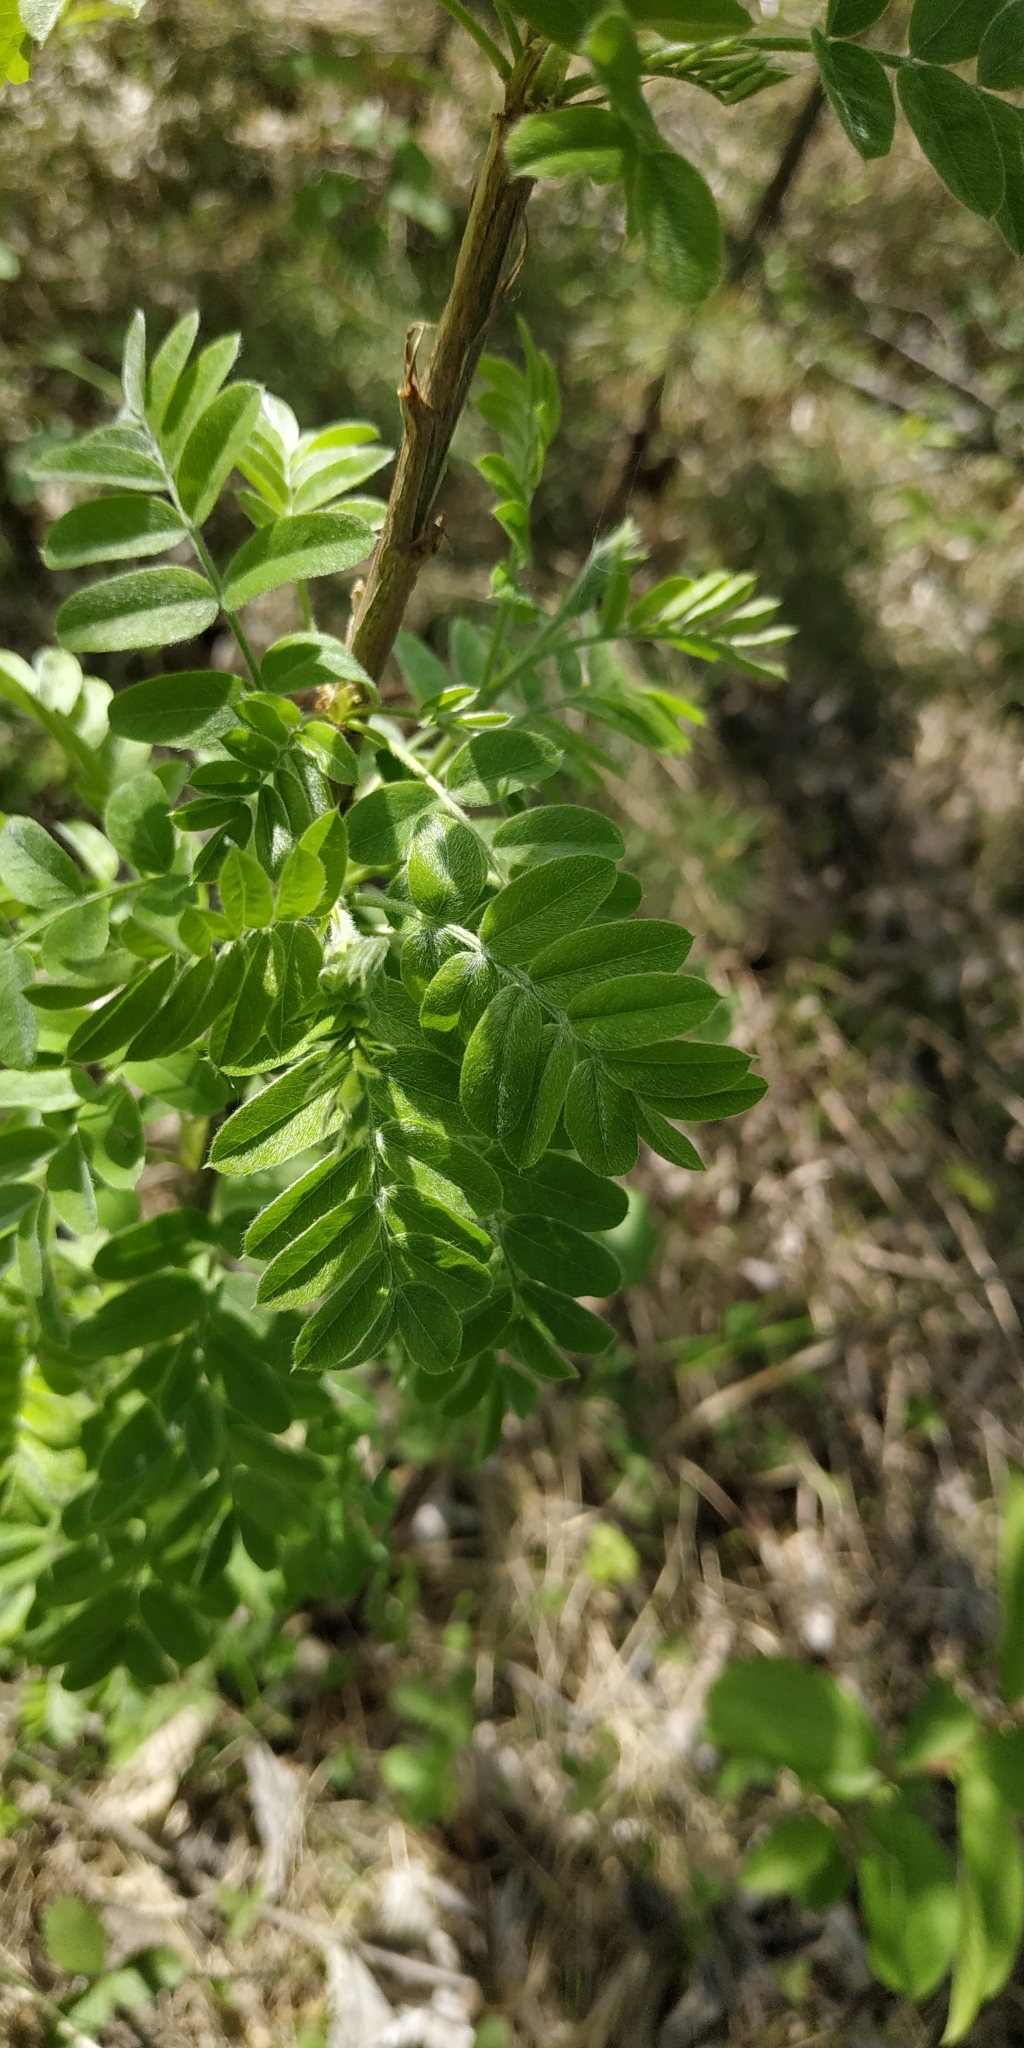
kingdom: Plantae
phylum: Tracheophyta
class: Magnoliopsida
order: Fabales
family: Fabaceae
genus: Caragana
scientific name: Caragana arborescens
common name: Siberian peashrub
